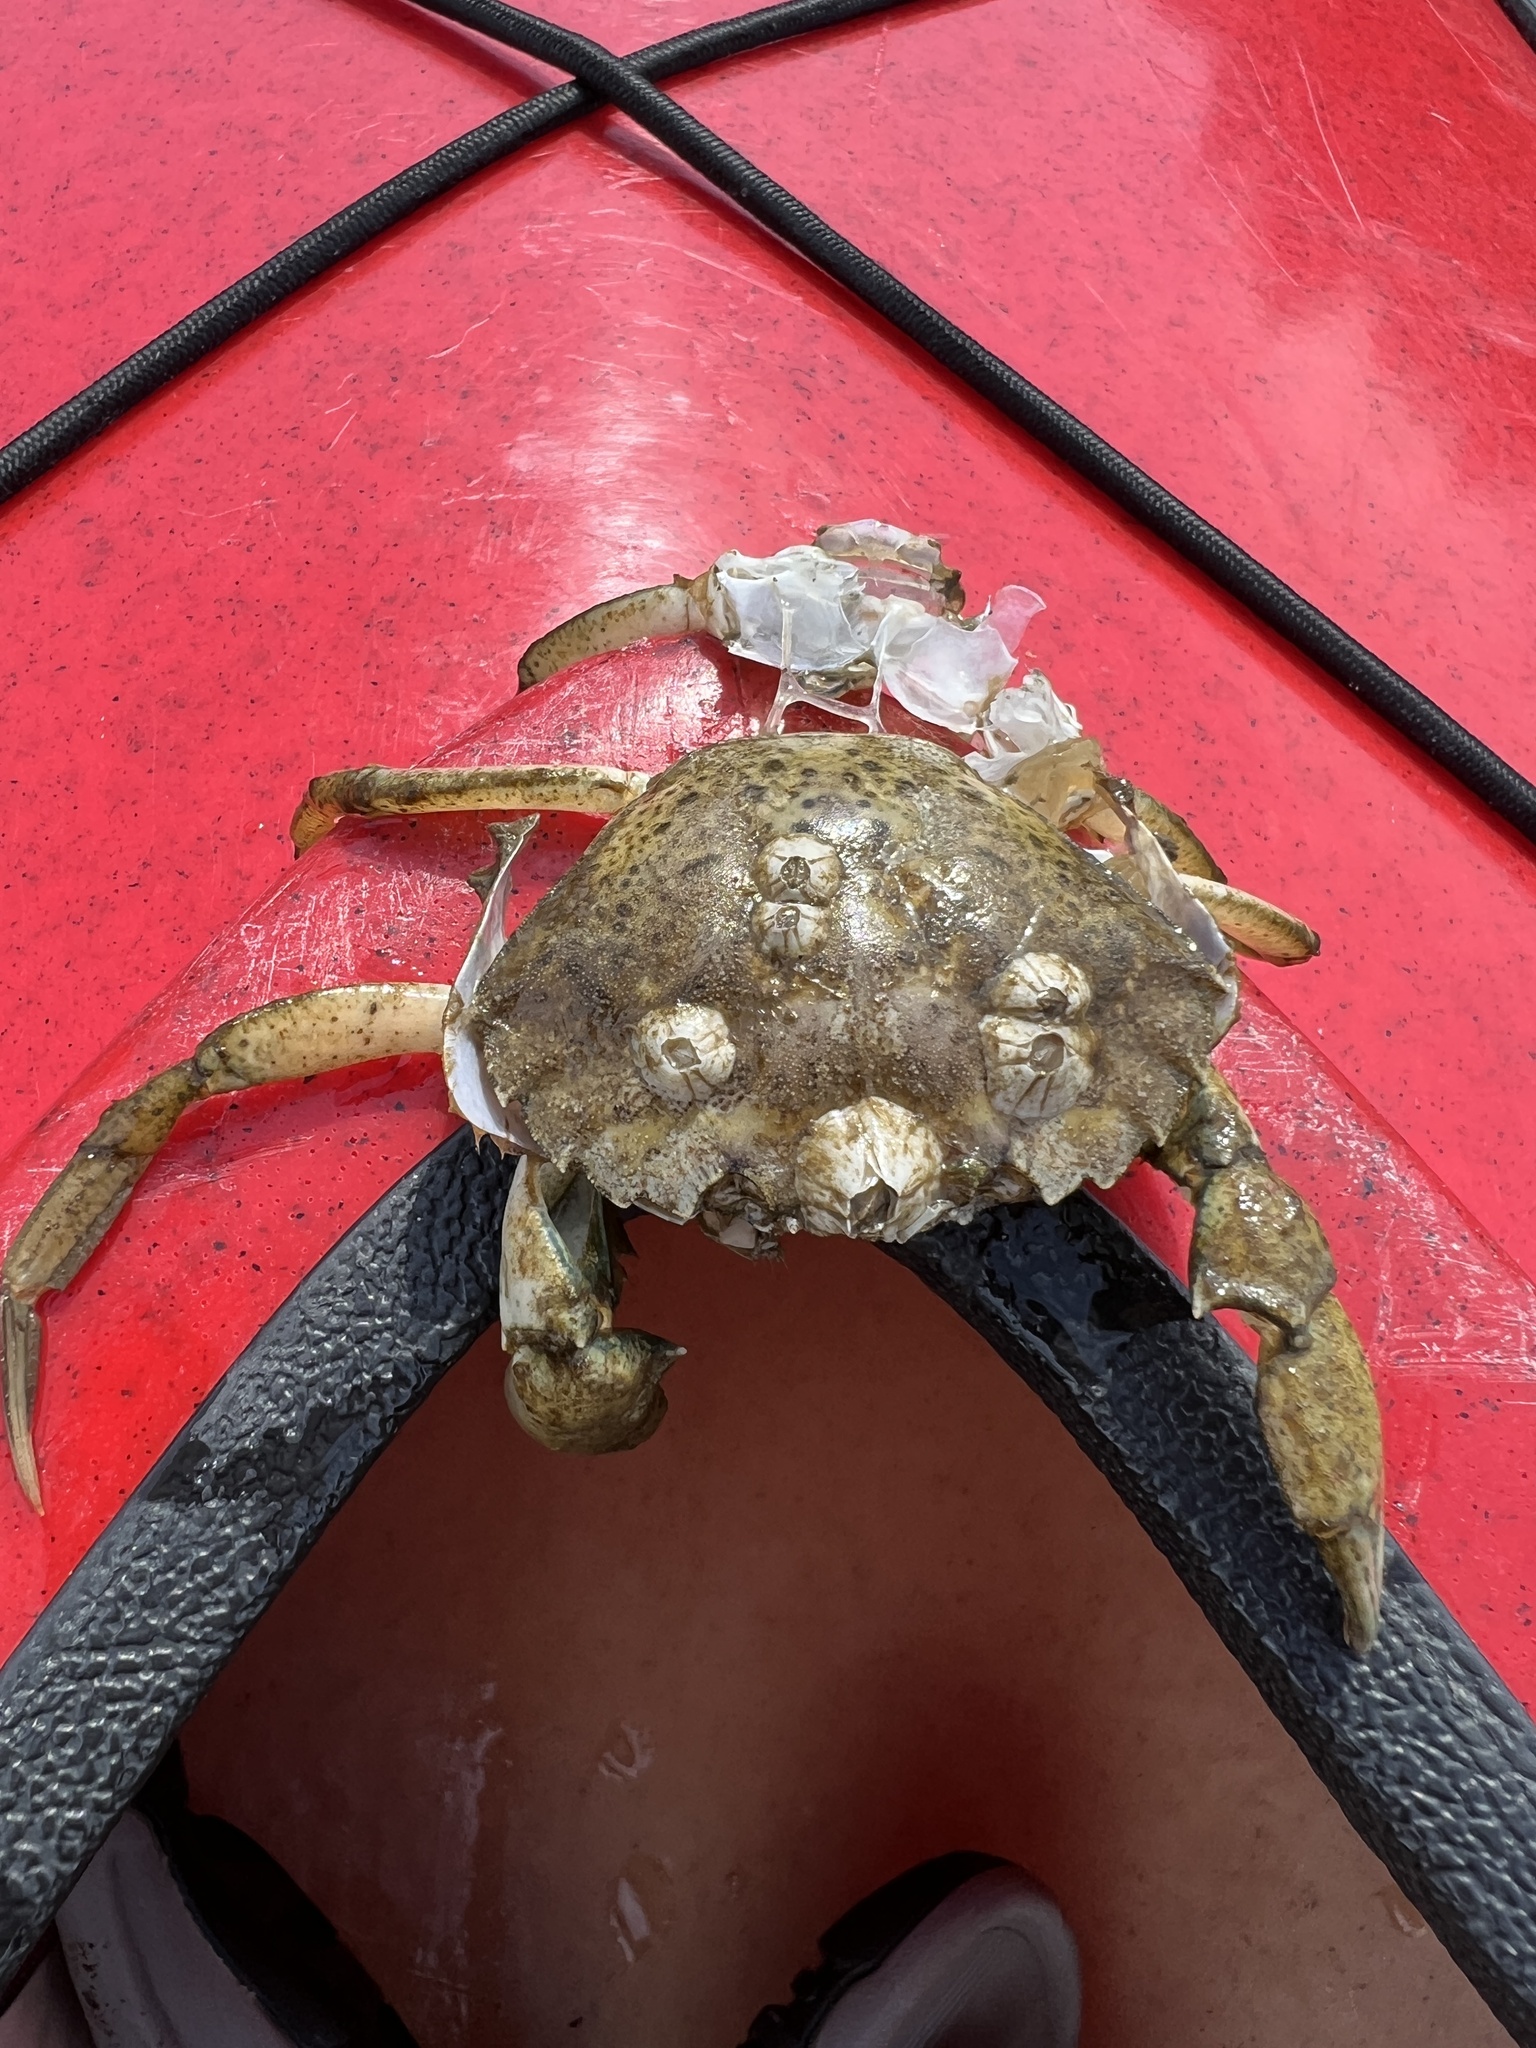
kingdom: Animalia
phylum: Arthropoda
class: Malacostraca
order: Decapoda
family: Carcinidae
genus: Carcinus
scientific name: Carcinus maenas
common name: European green crab
